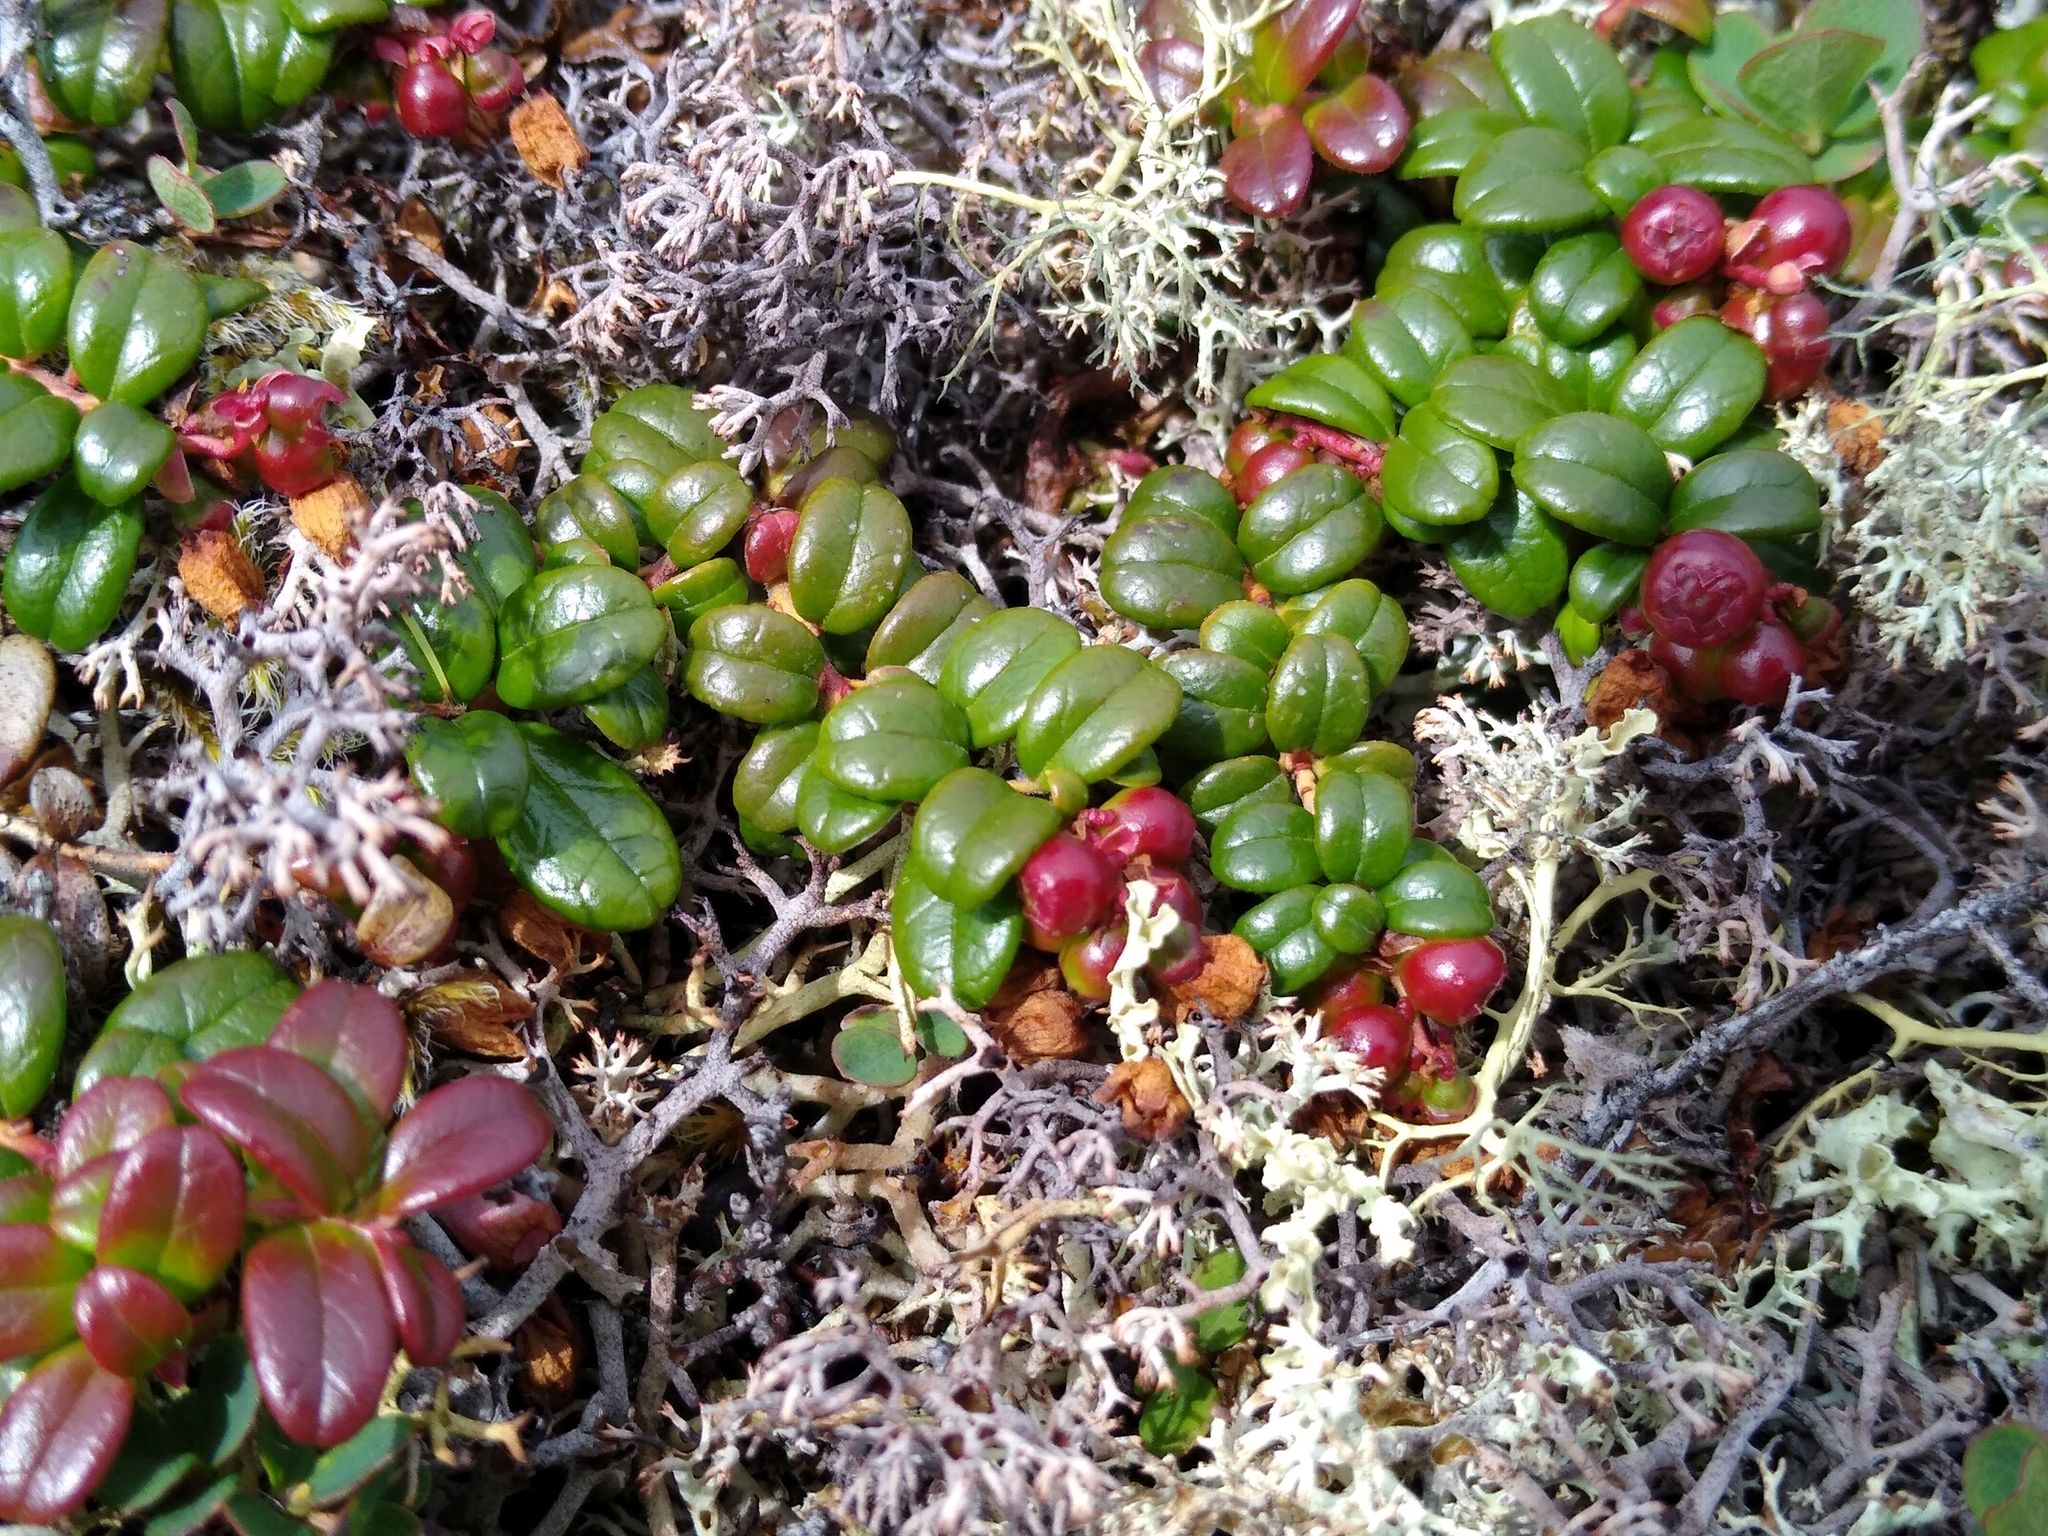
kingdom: Plantae
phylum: Tracheophyta
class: Magnoliopsida
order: Ericales
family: Ericaceae
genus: Vaccinium
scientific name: Vaccinium vitis-idaea
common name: Cowberry
